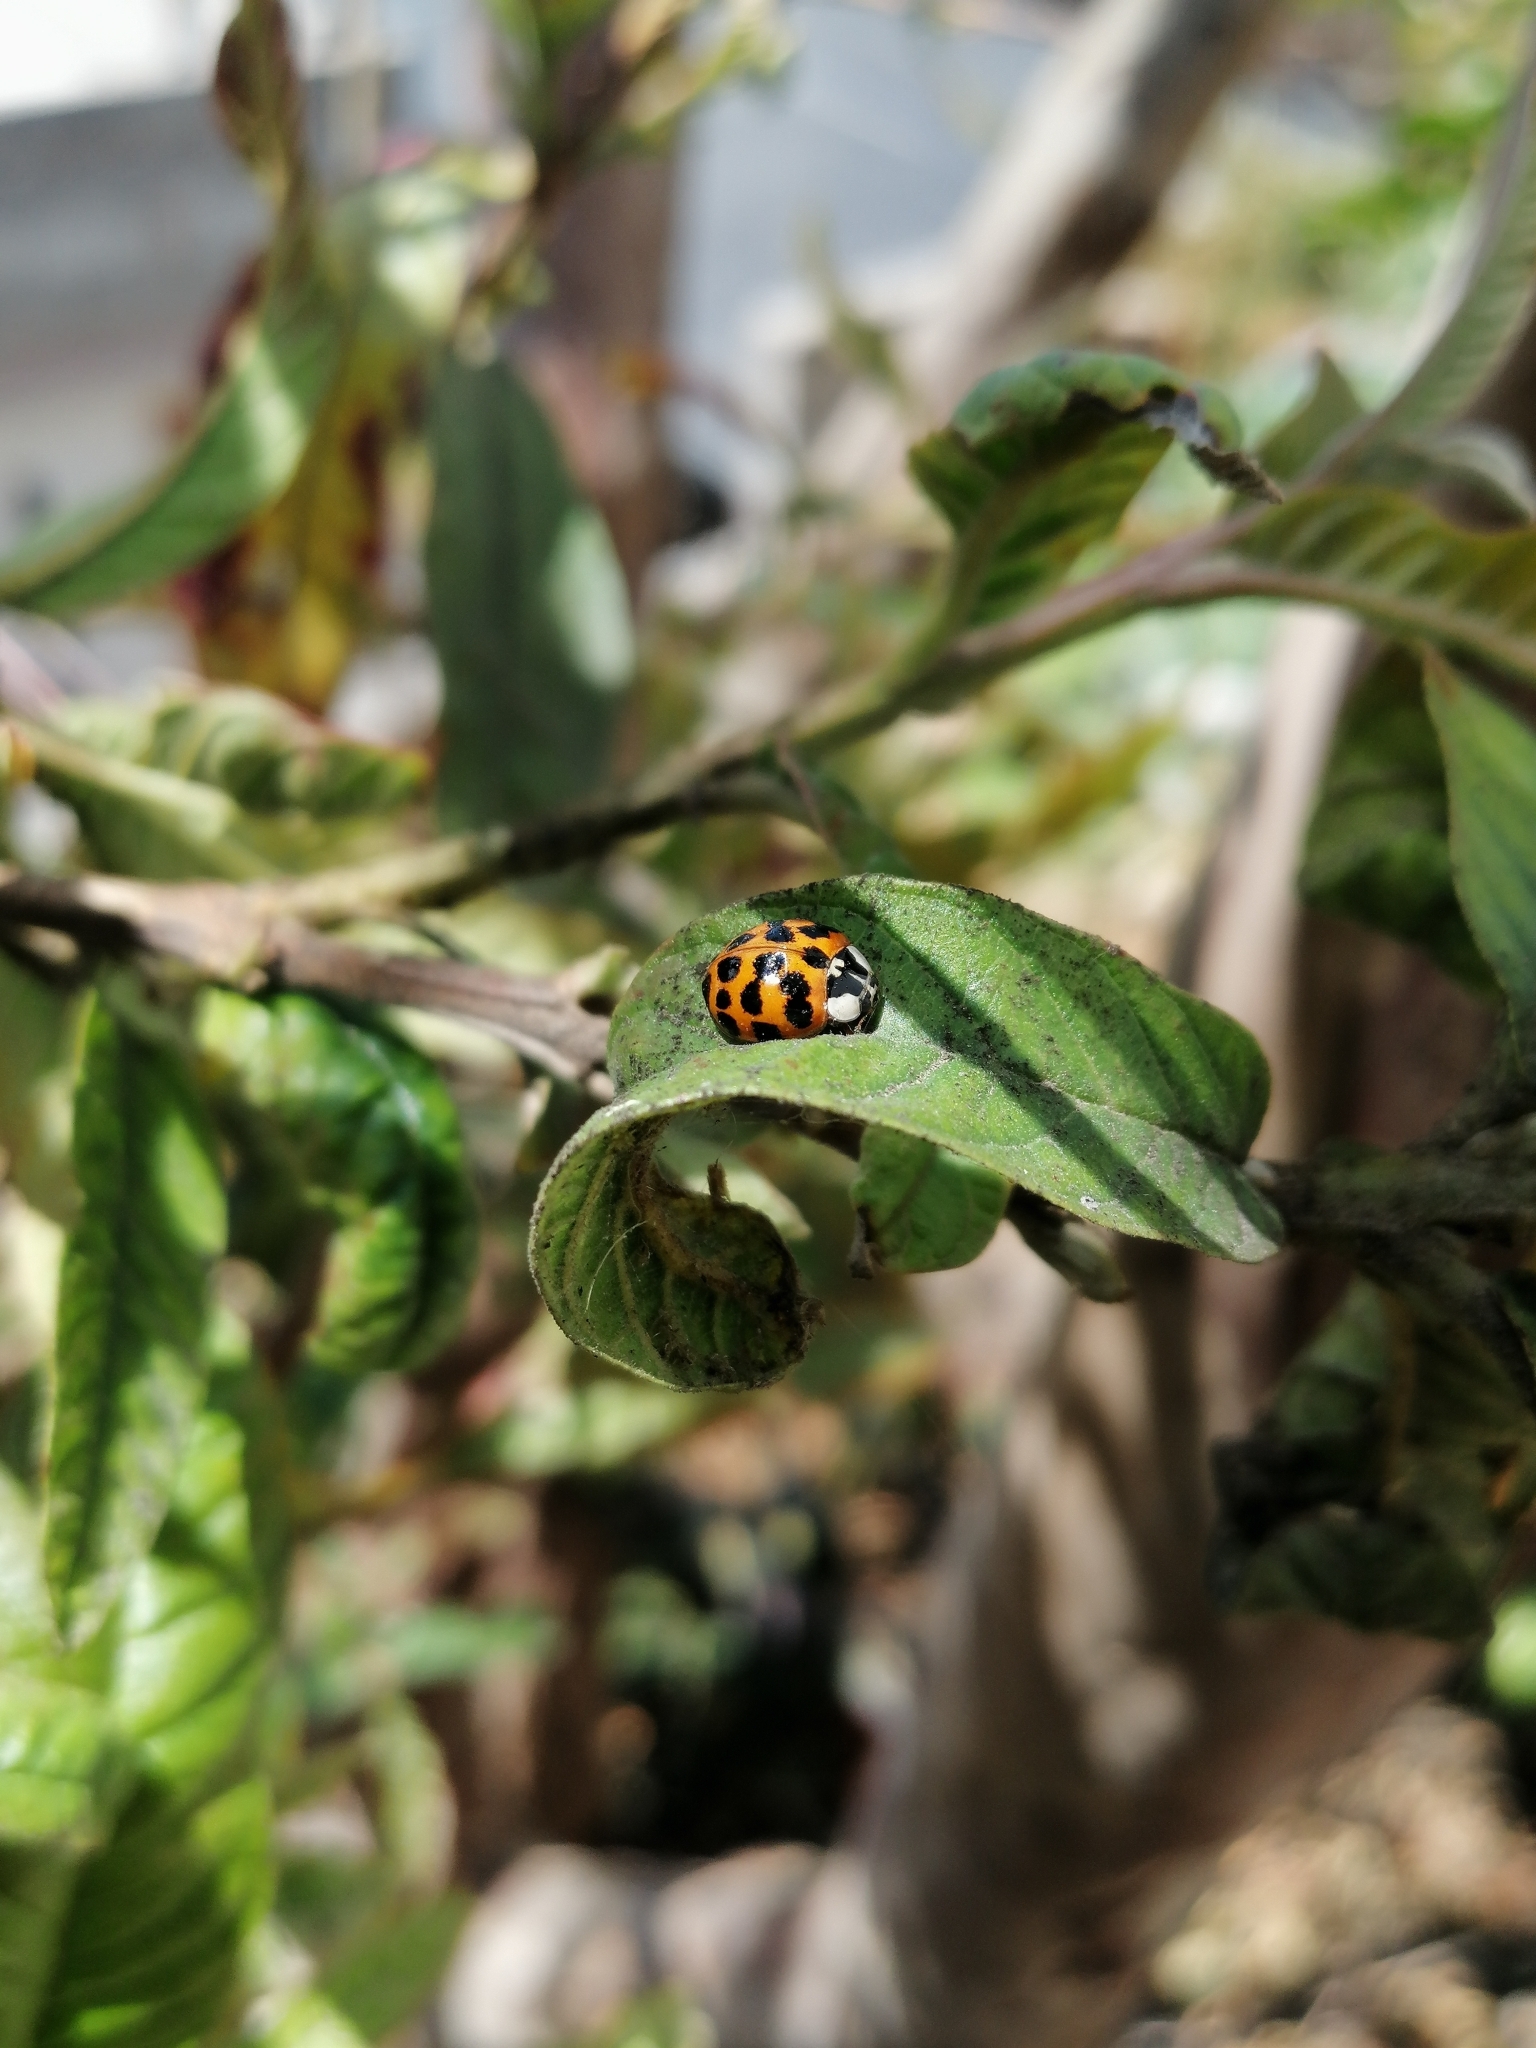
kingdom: Animalia
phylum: Arthropoda
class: Insecta
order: Coleoptera
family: Coccinellidae
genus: Harmonia
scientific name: Harmonia axyridis
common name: Harlequin ladybird
